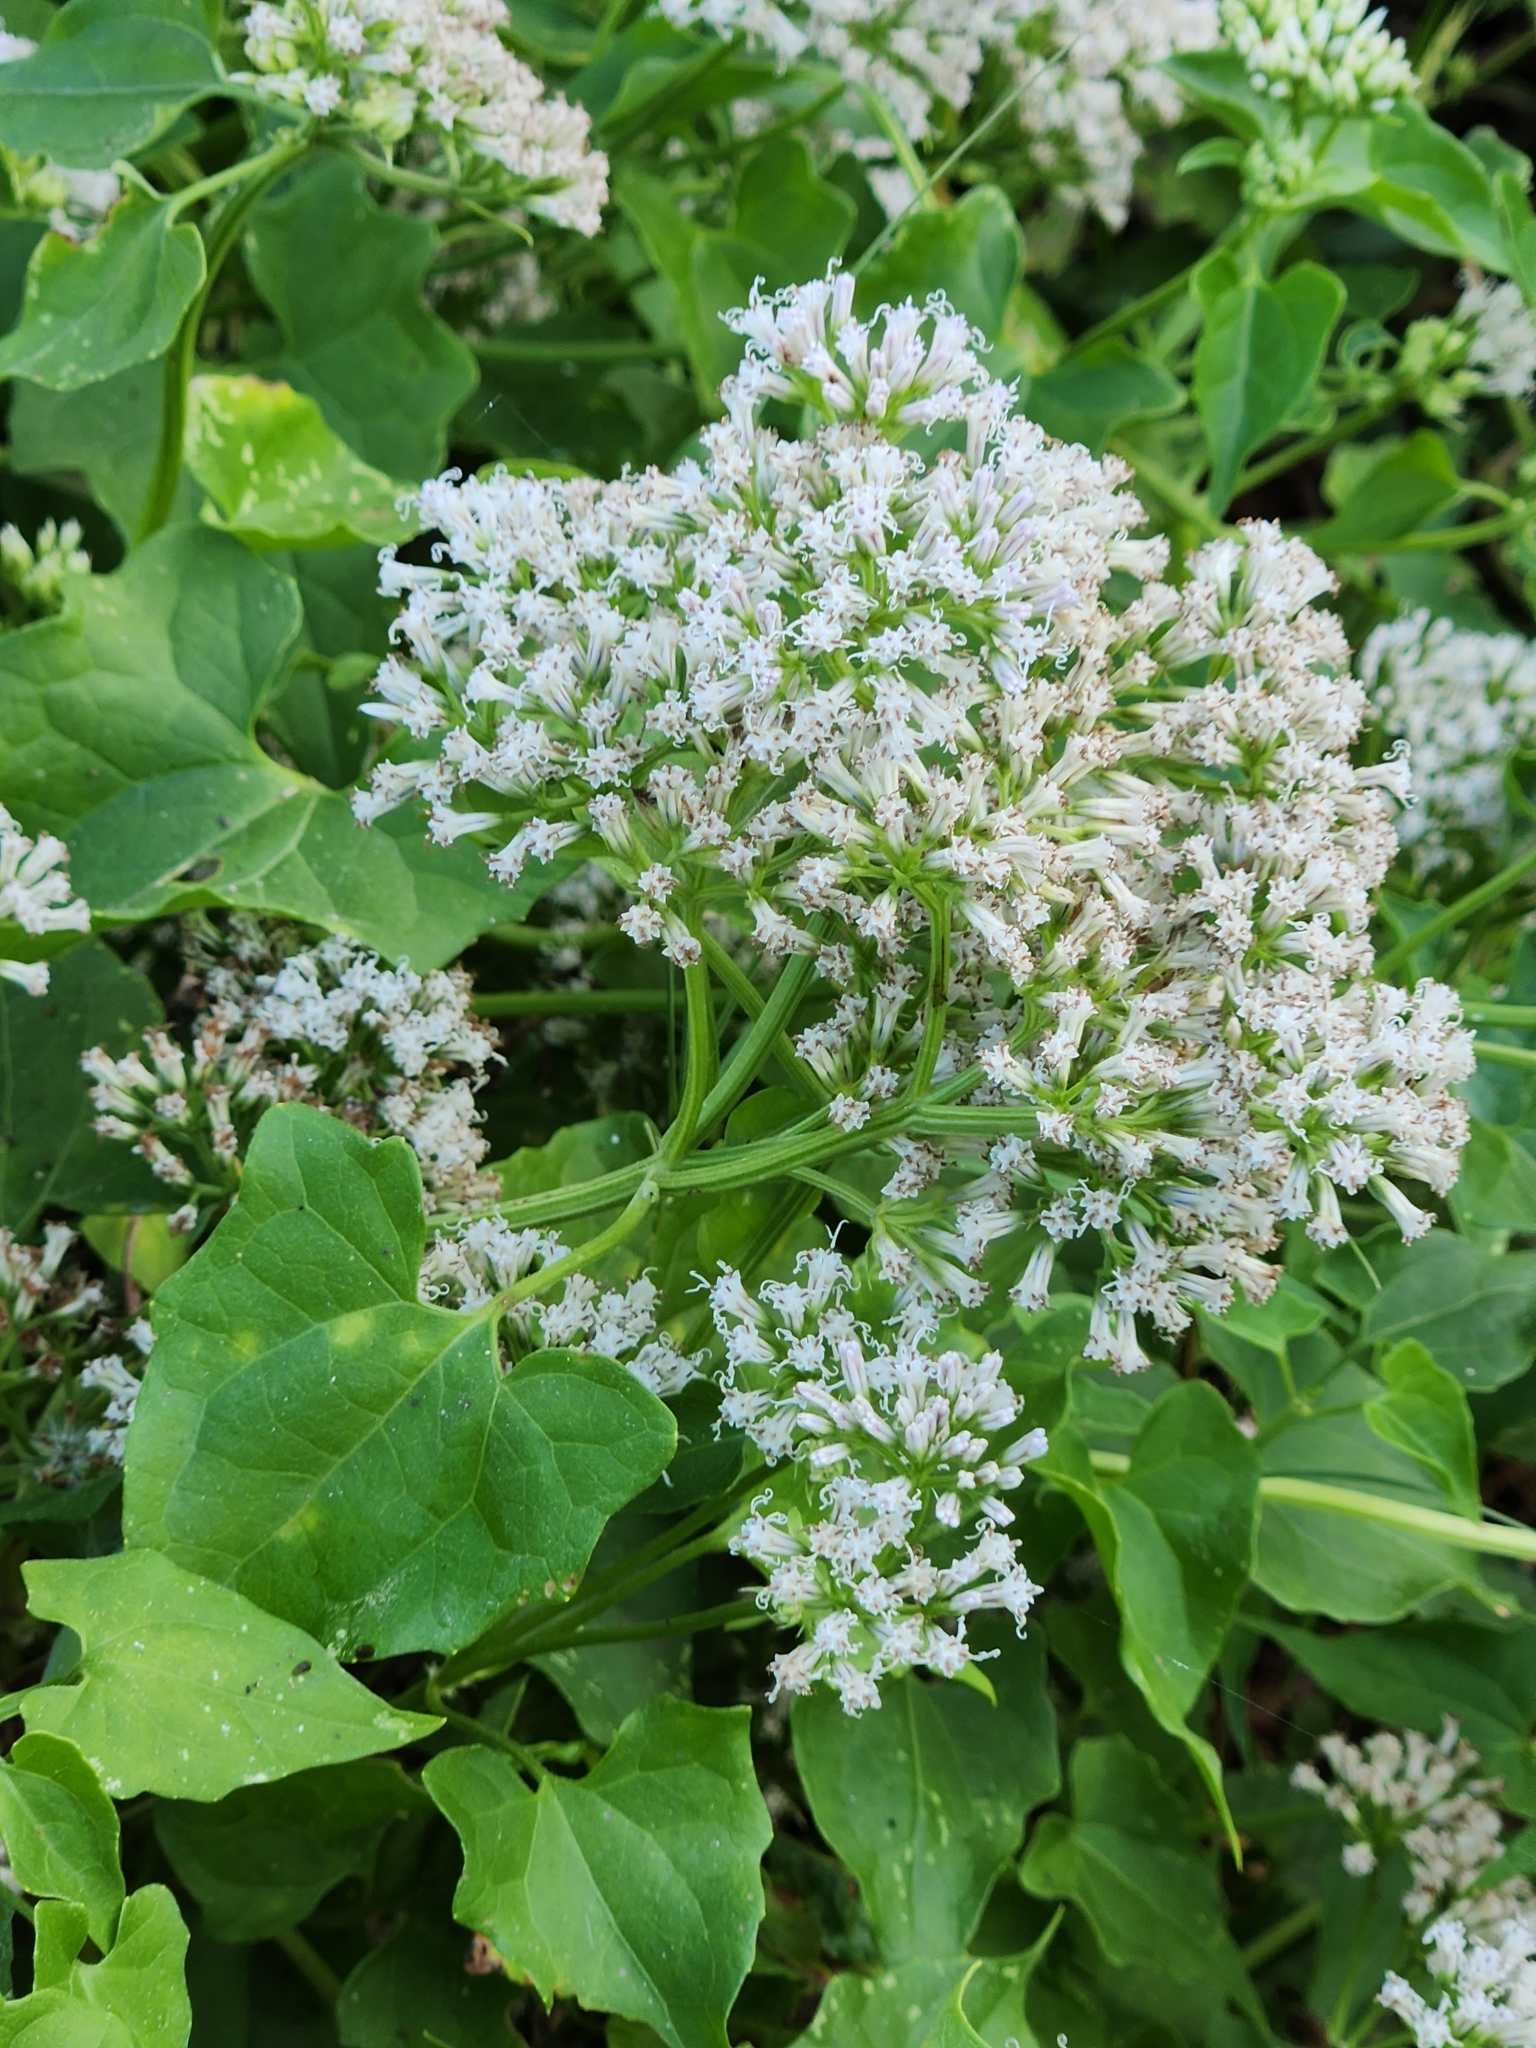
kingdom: Plantae
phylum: Tracheophyta
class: Magnoliopsida
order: Asterales
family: Asteraceae
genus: Mikania
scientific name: Mikania scandens
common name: Climbing hempvine
